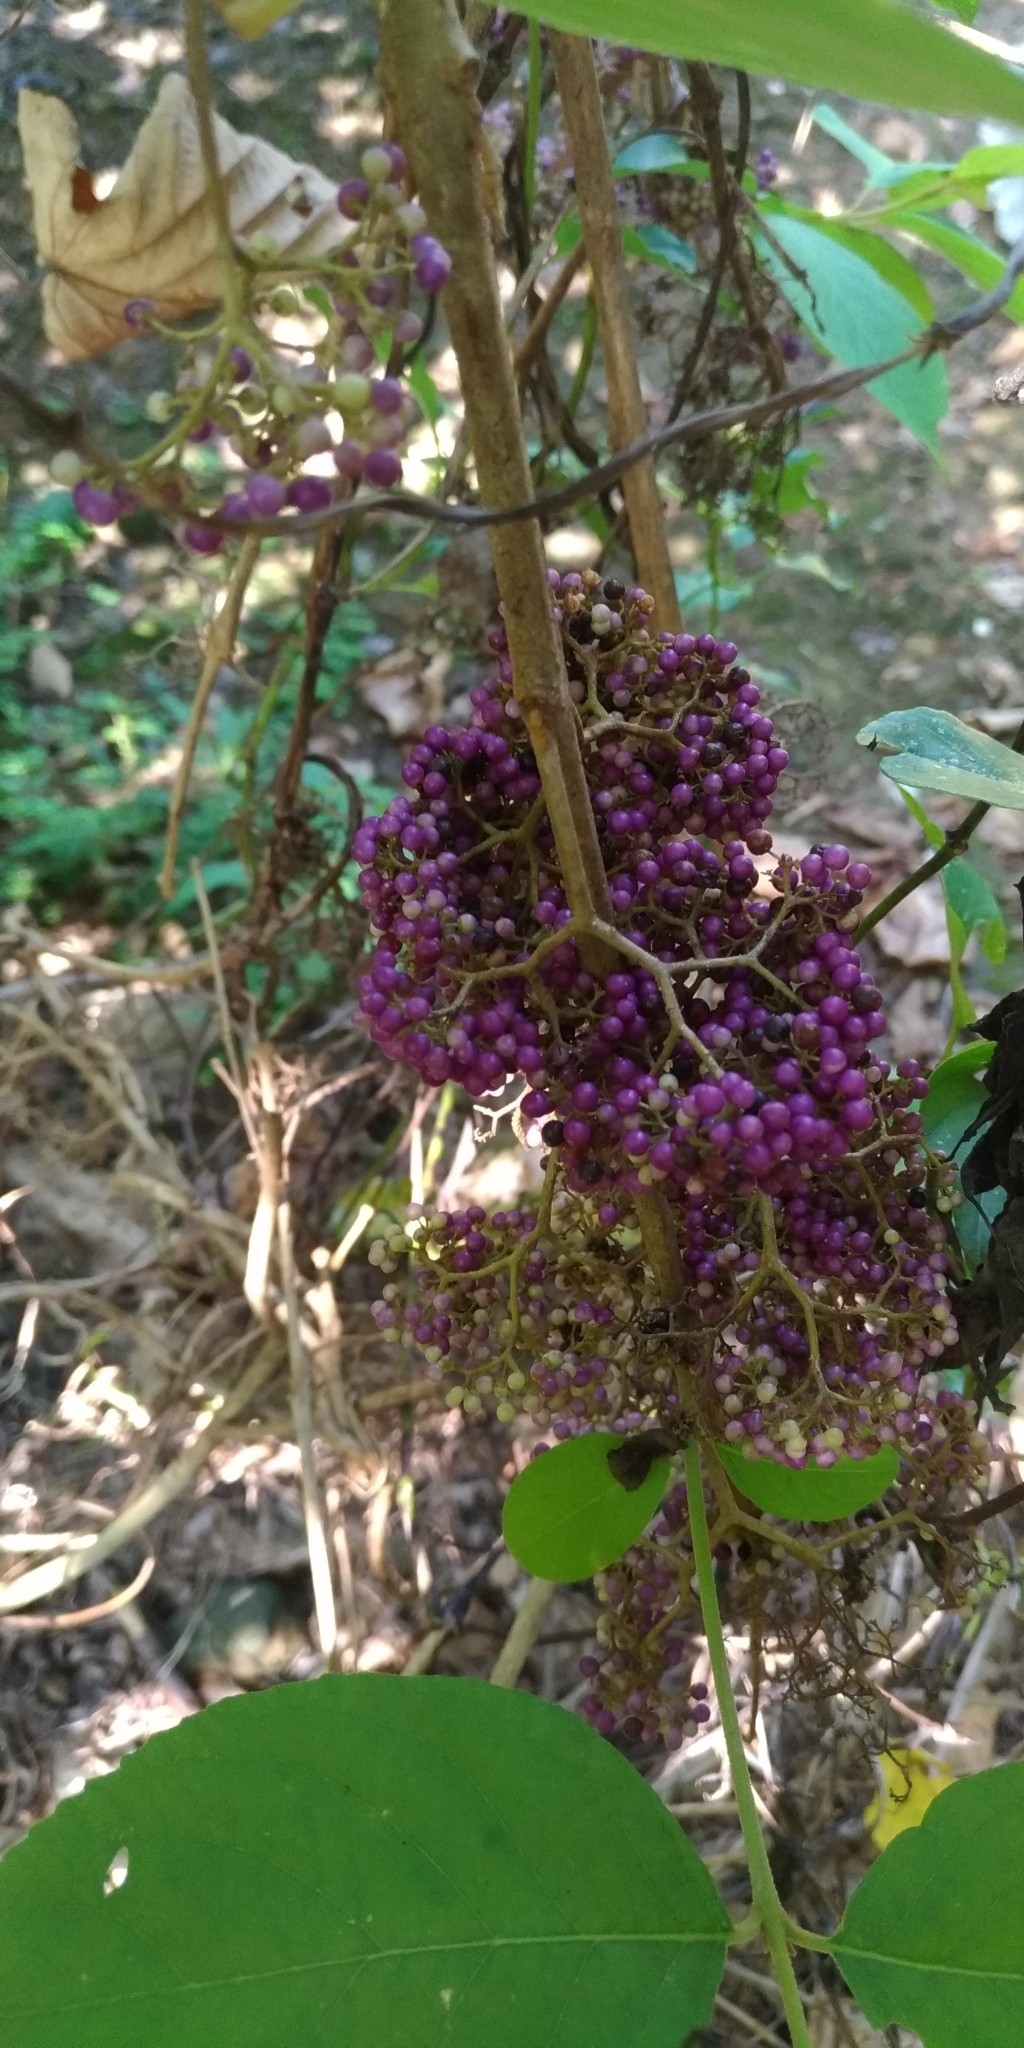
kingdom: Plantae
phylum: Tracheophyta
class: Magnoliopsida
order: Lamiales
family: Lamiaceae
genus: Callicarpa
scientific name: Callicarpa pedunculata
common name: Velvetleaf
